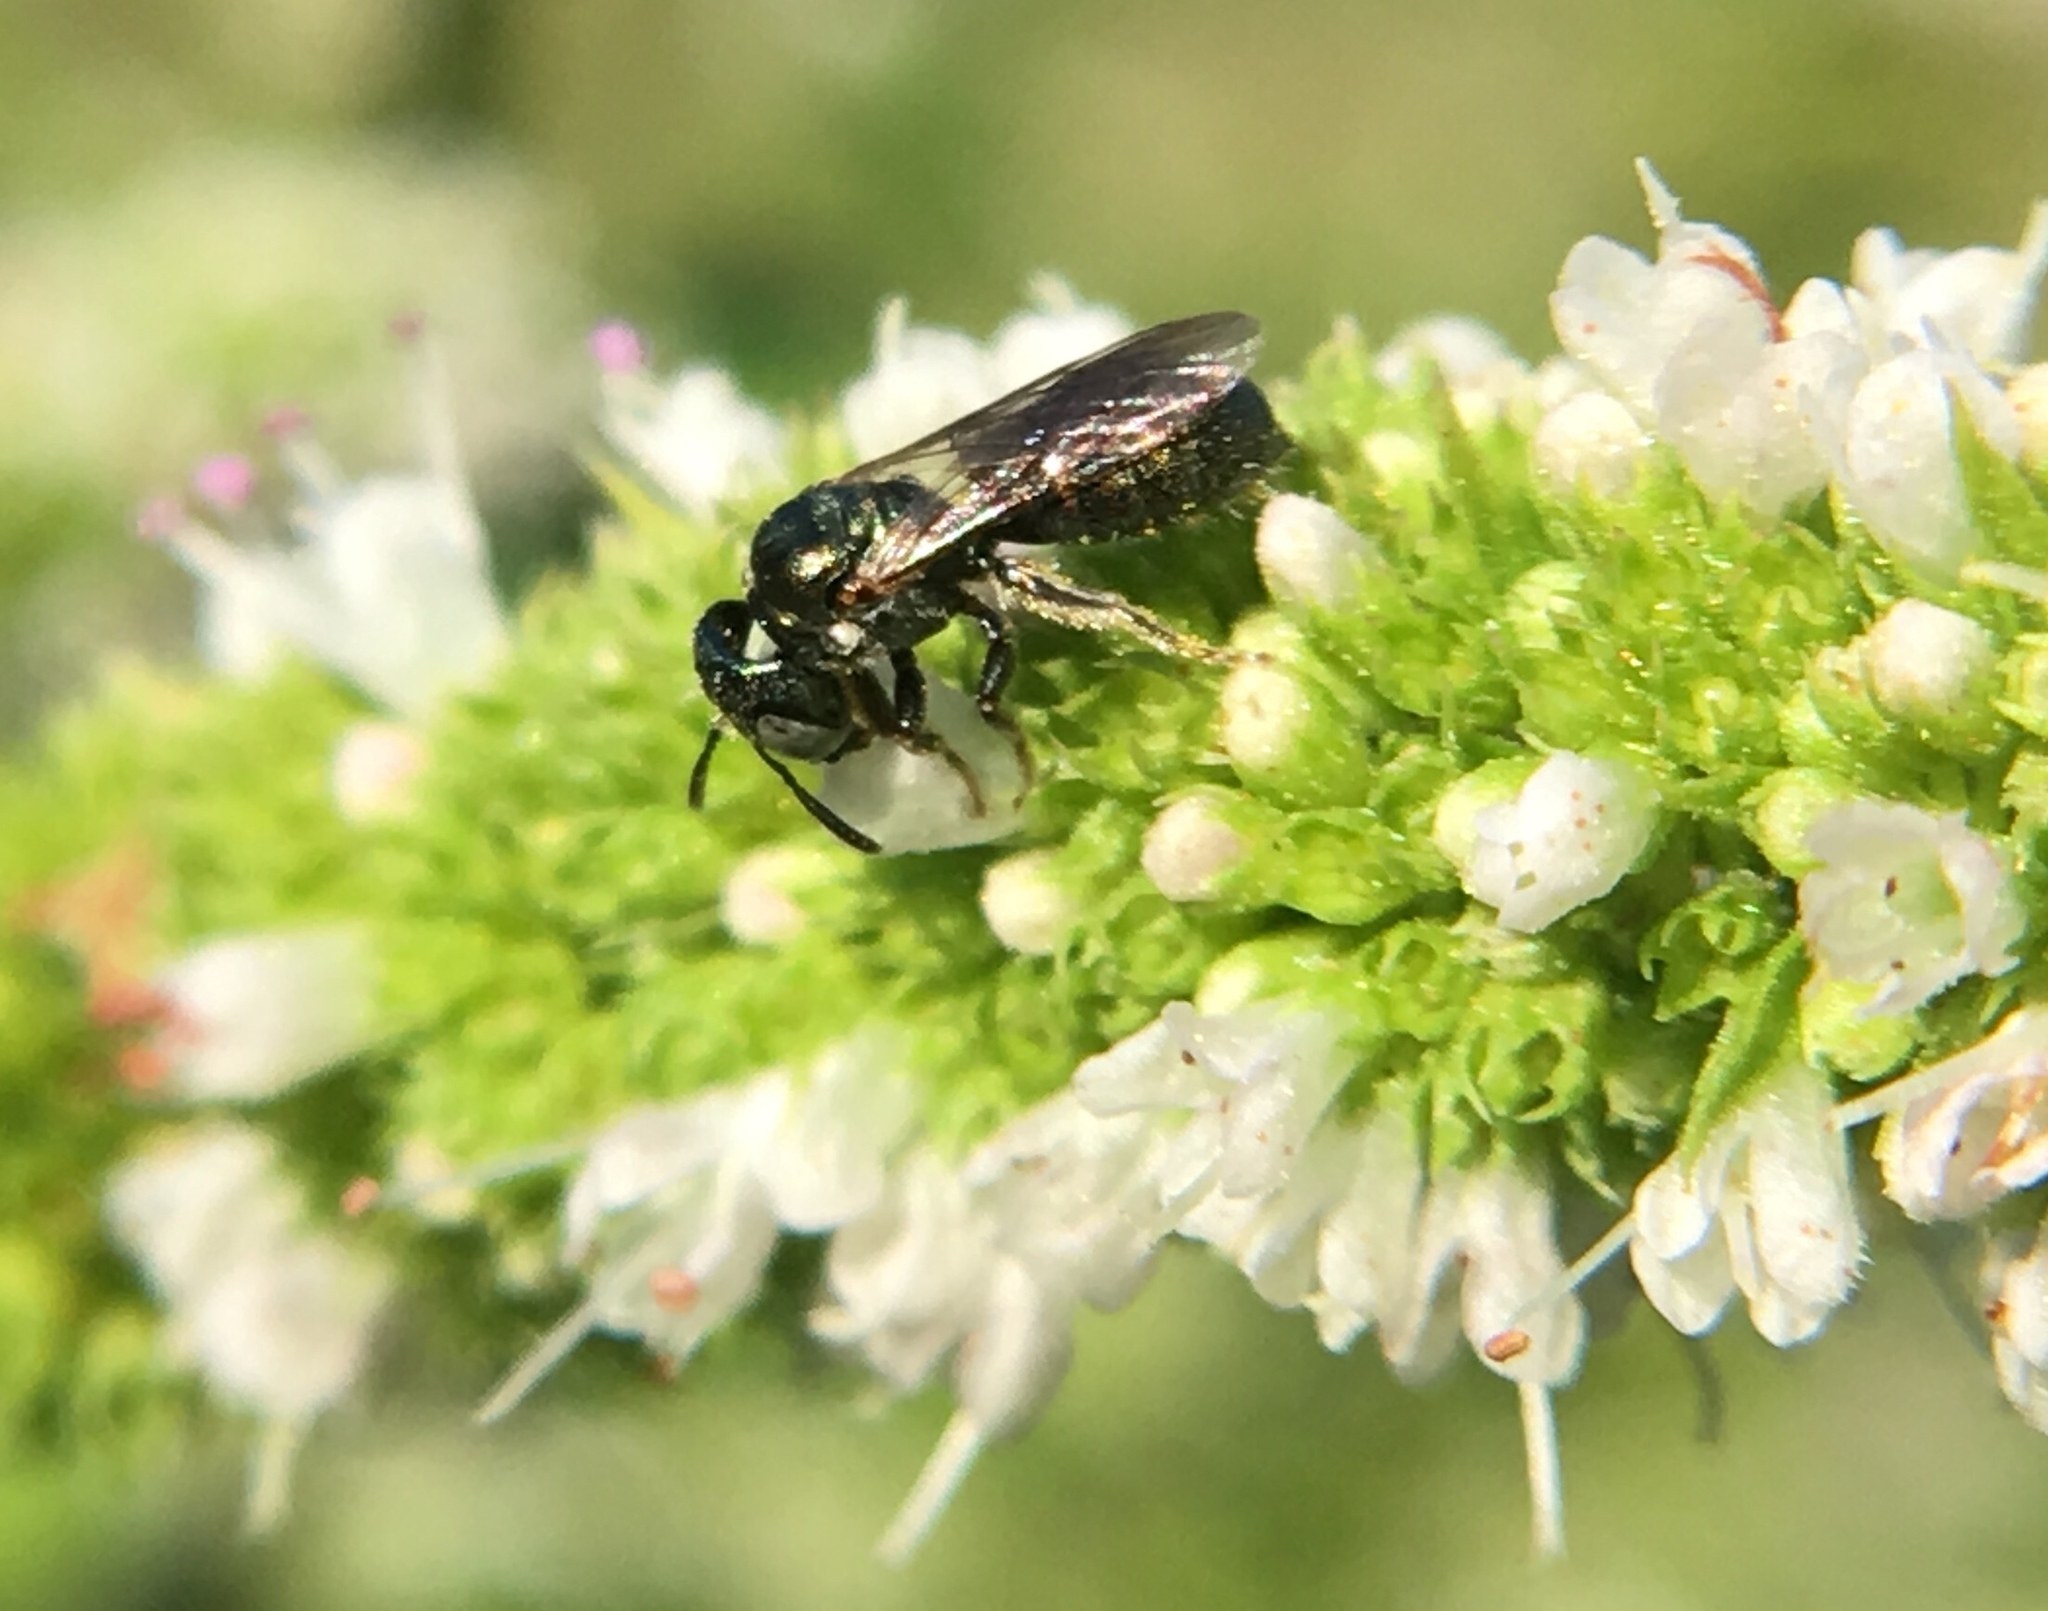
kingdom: Animalia
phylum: Arthropoda
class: Insecta
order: Hymenoptera
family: Apidae
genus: Ceratina
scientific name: Ceratina strenua
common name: Nimble carpenter bee
